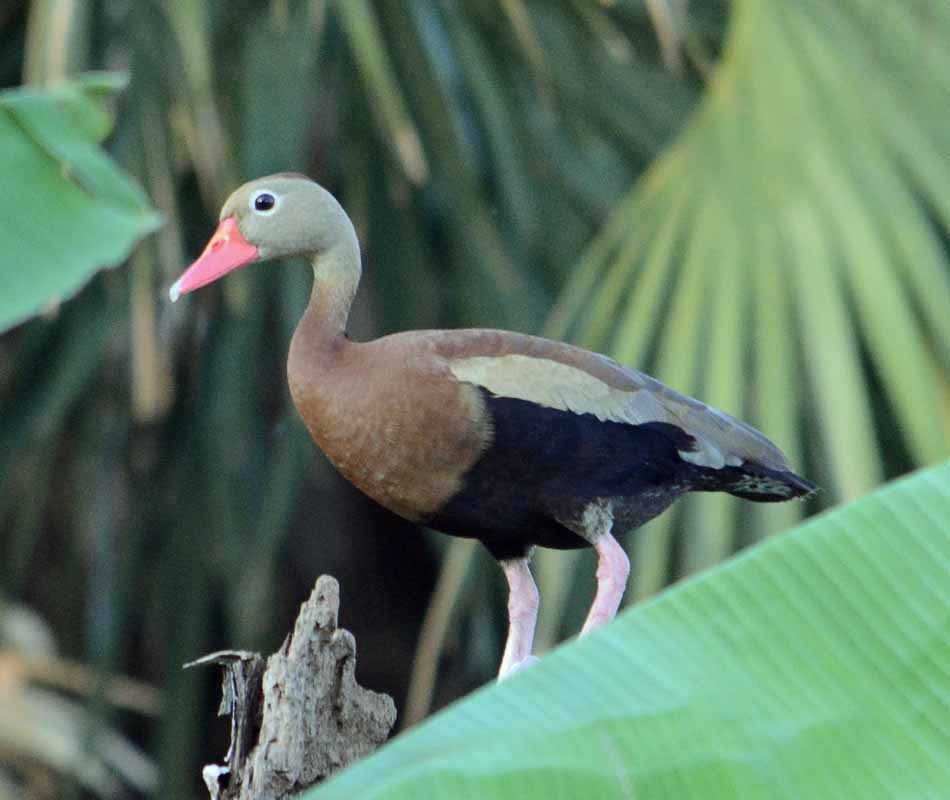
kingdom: Animalia
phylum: Chordata
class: Aves
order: Anseriformes
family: Anatidae
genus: Dendrocygna
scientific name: Dendrocygna autumnalis
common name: Black-bellied whistling duck
